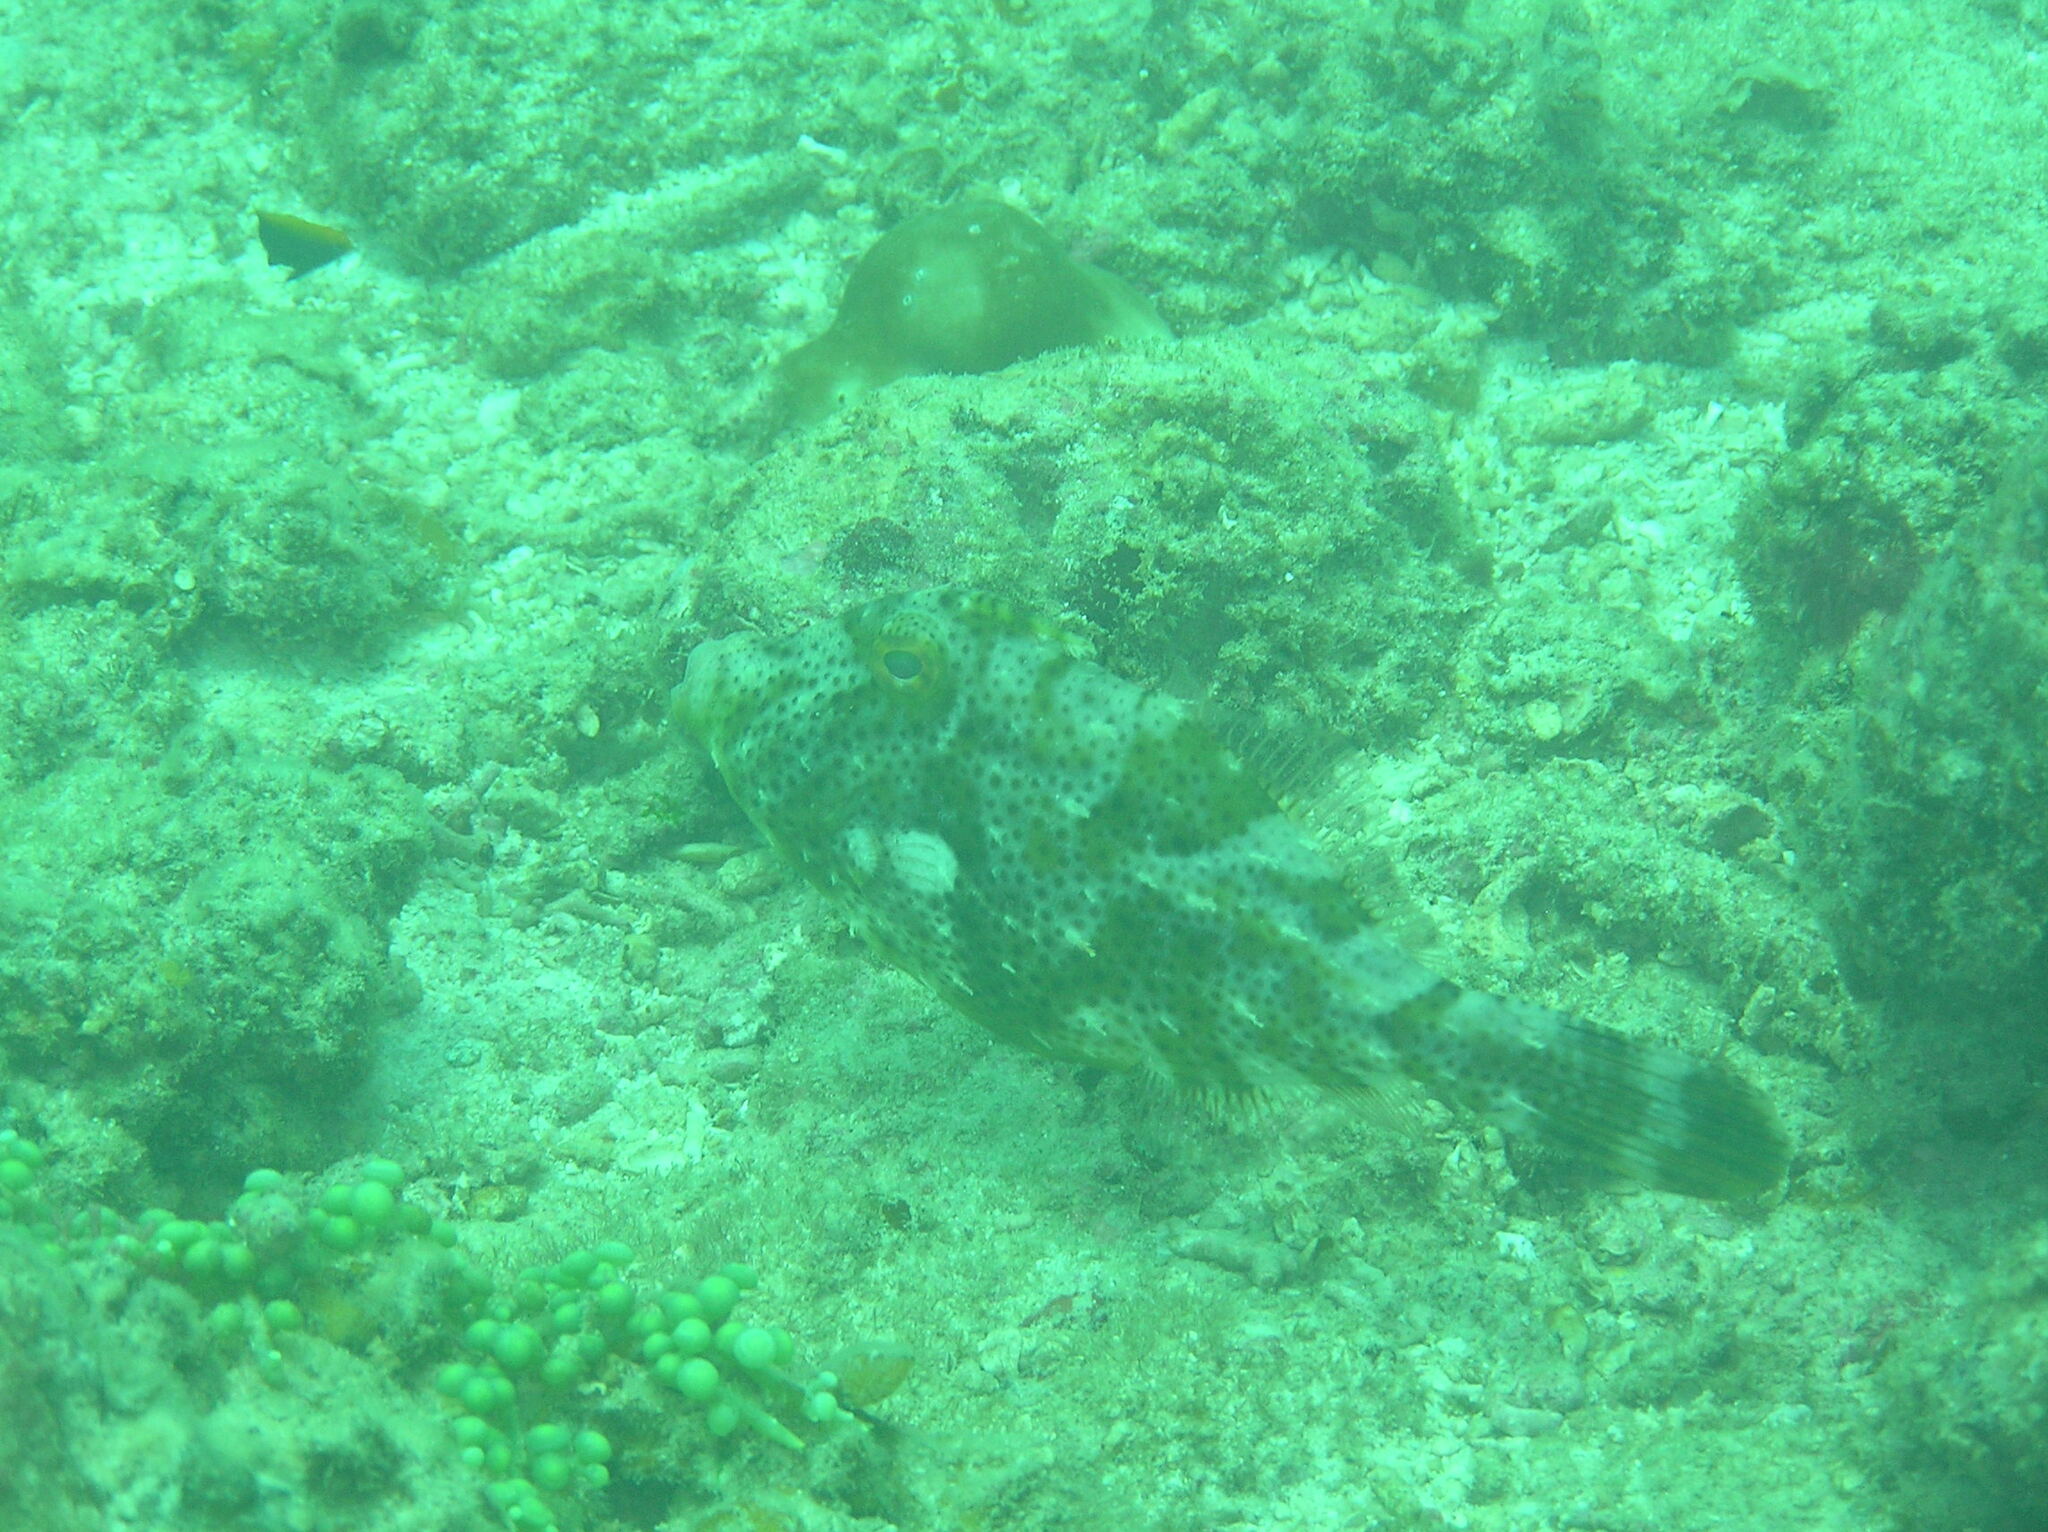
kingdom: Animalia
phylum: Chordata
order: Tetraodontiformes
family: Monacanthidae
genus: Pseudomonacanthus
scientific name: Pseudomonacanthus macrurus
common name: Blotchy filefish
